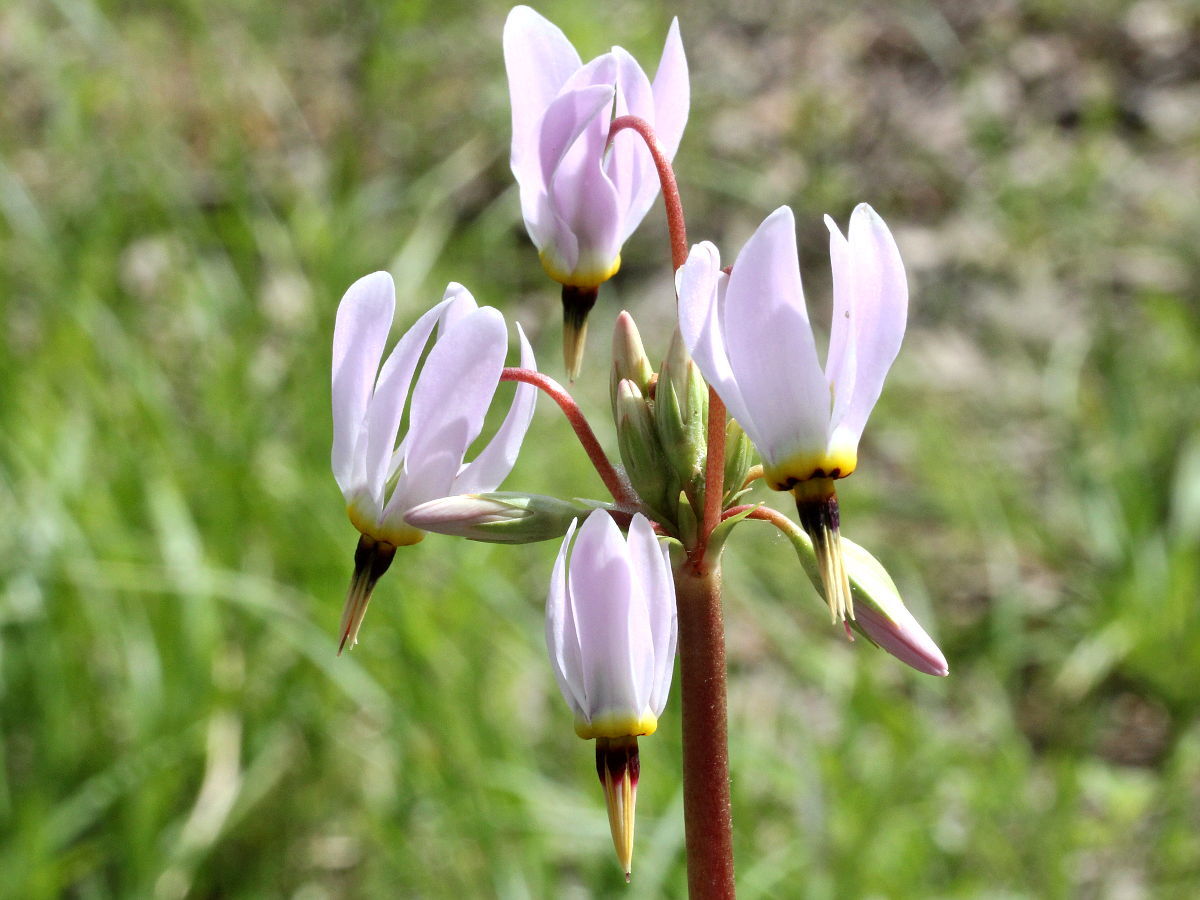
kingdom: Plantae
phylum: Tracheophyta
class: Magnoliopsida
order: Ericales
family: Primulaceae
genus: Dodecatheon
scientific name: Dodecatheon meadia
